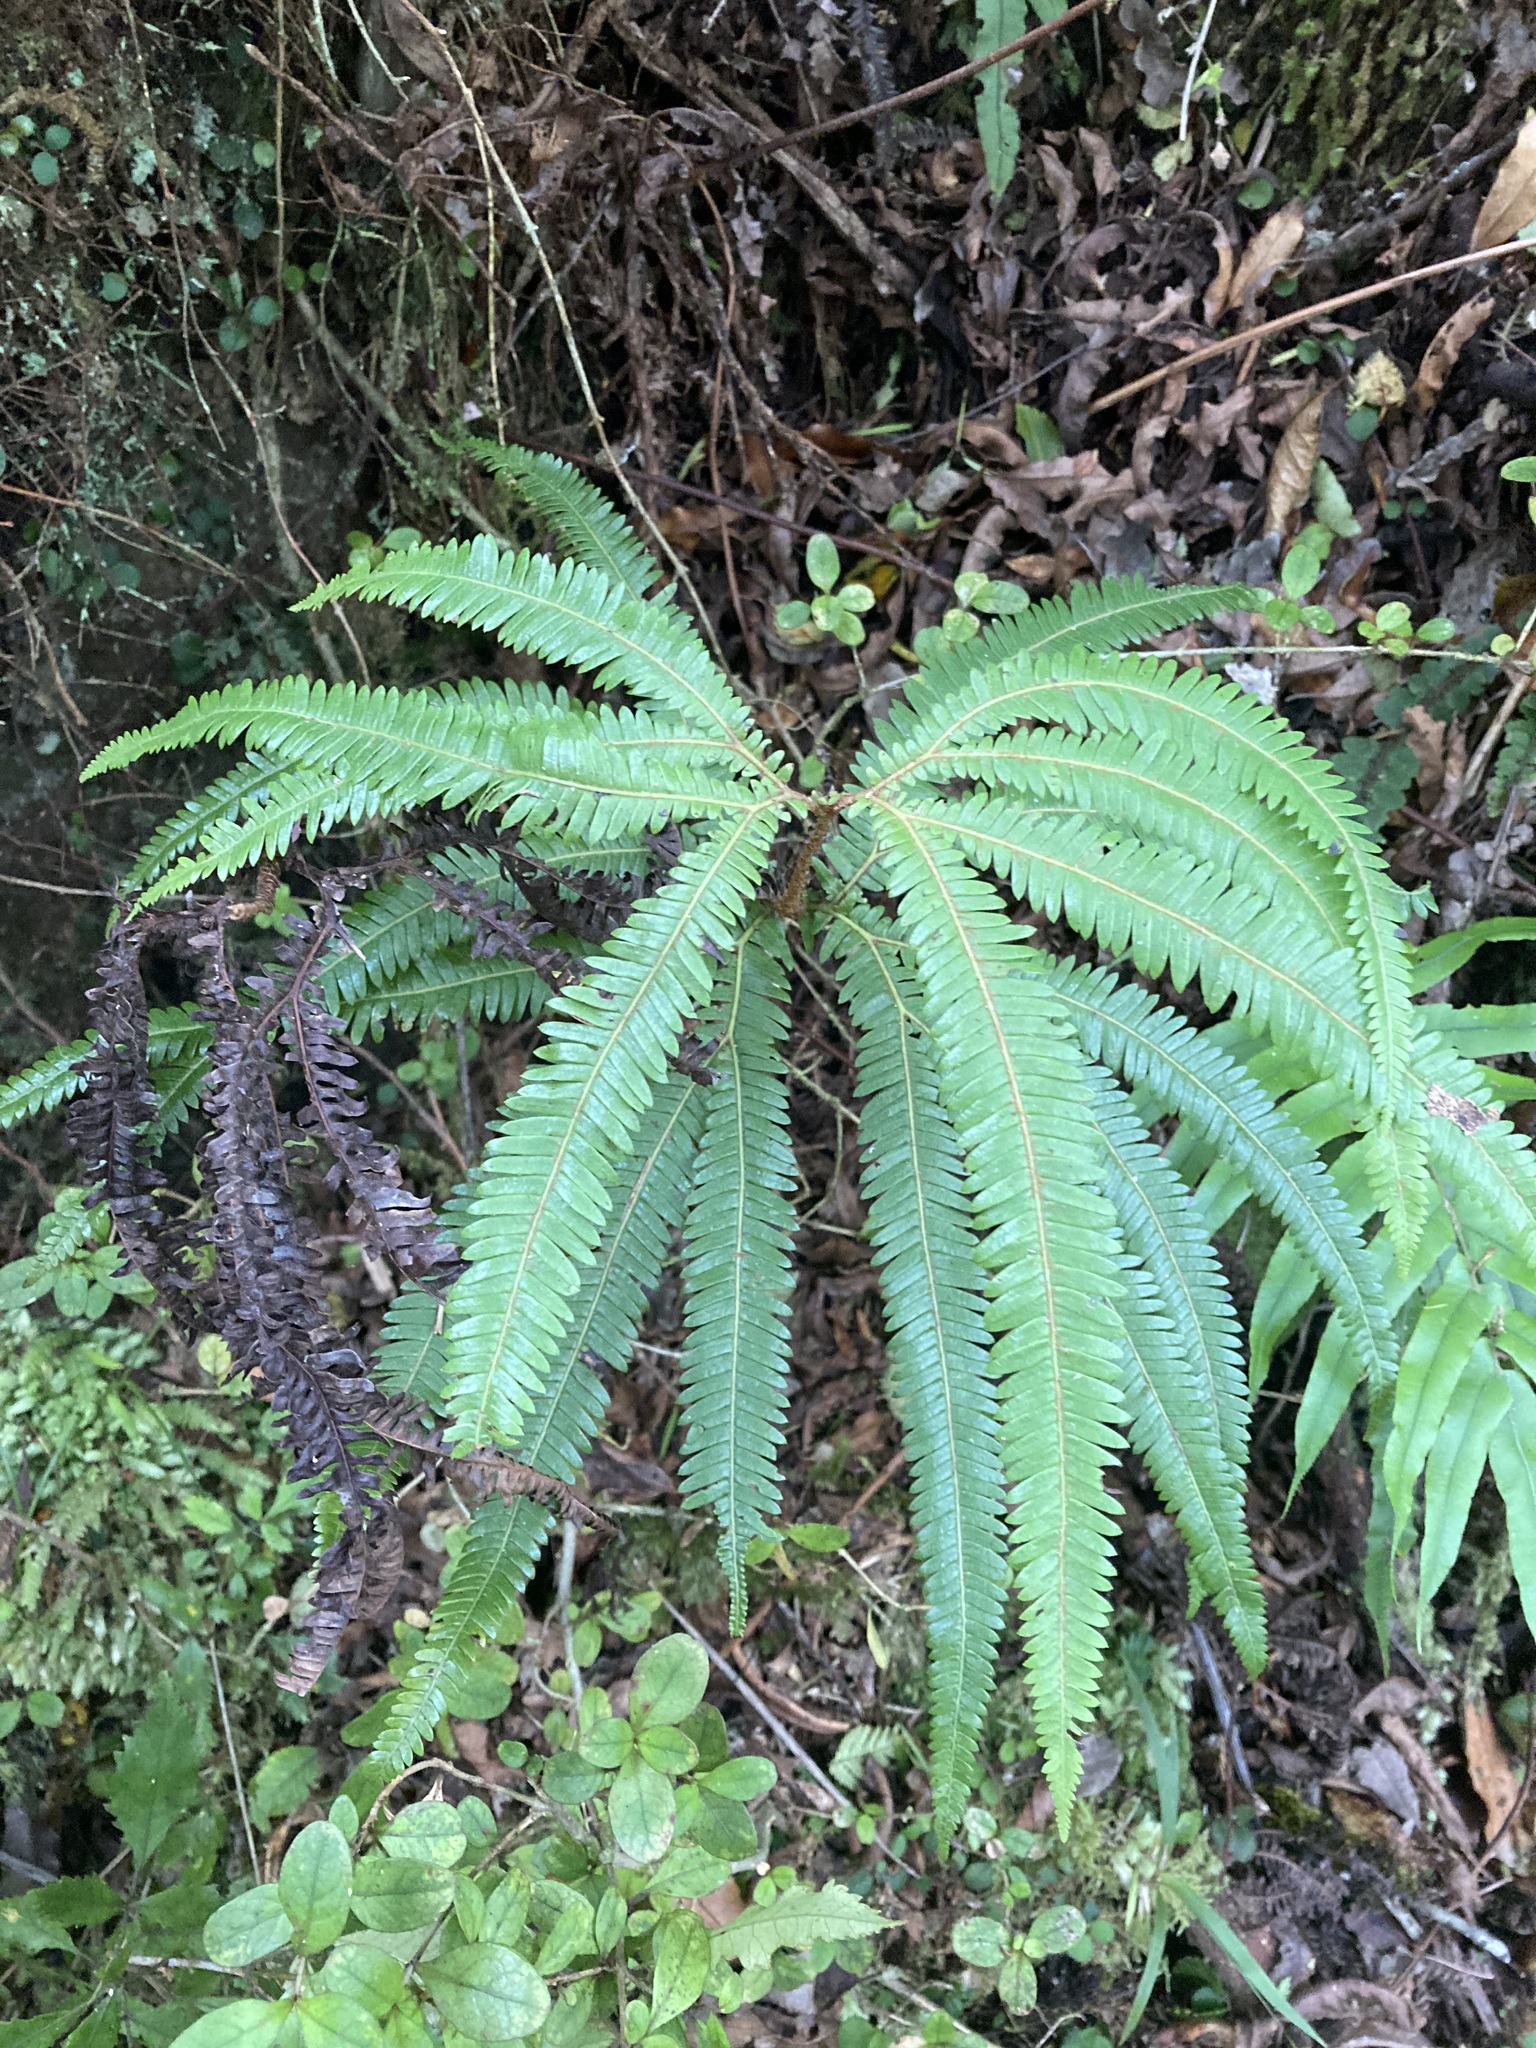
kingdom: Plantae
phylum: Tracheophyta
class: Polypodiopsida
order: Gleicheniales
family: Gleicheniaceae
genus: Sticherus
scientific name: Sticherus cunninghamii
